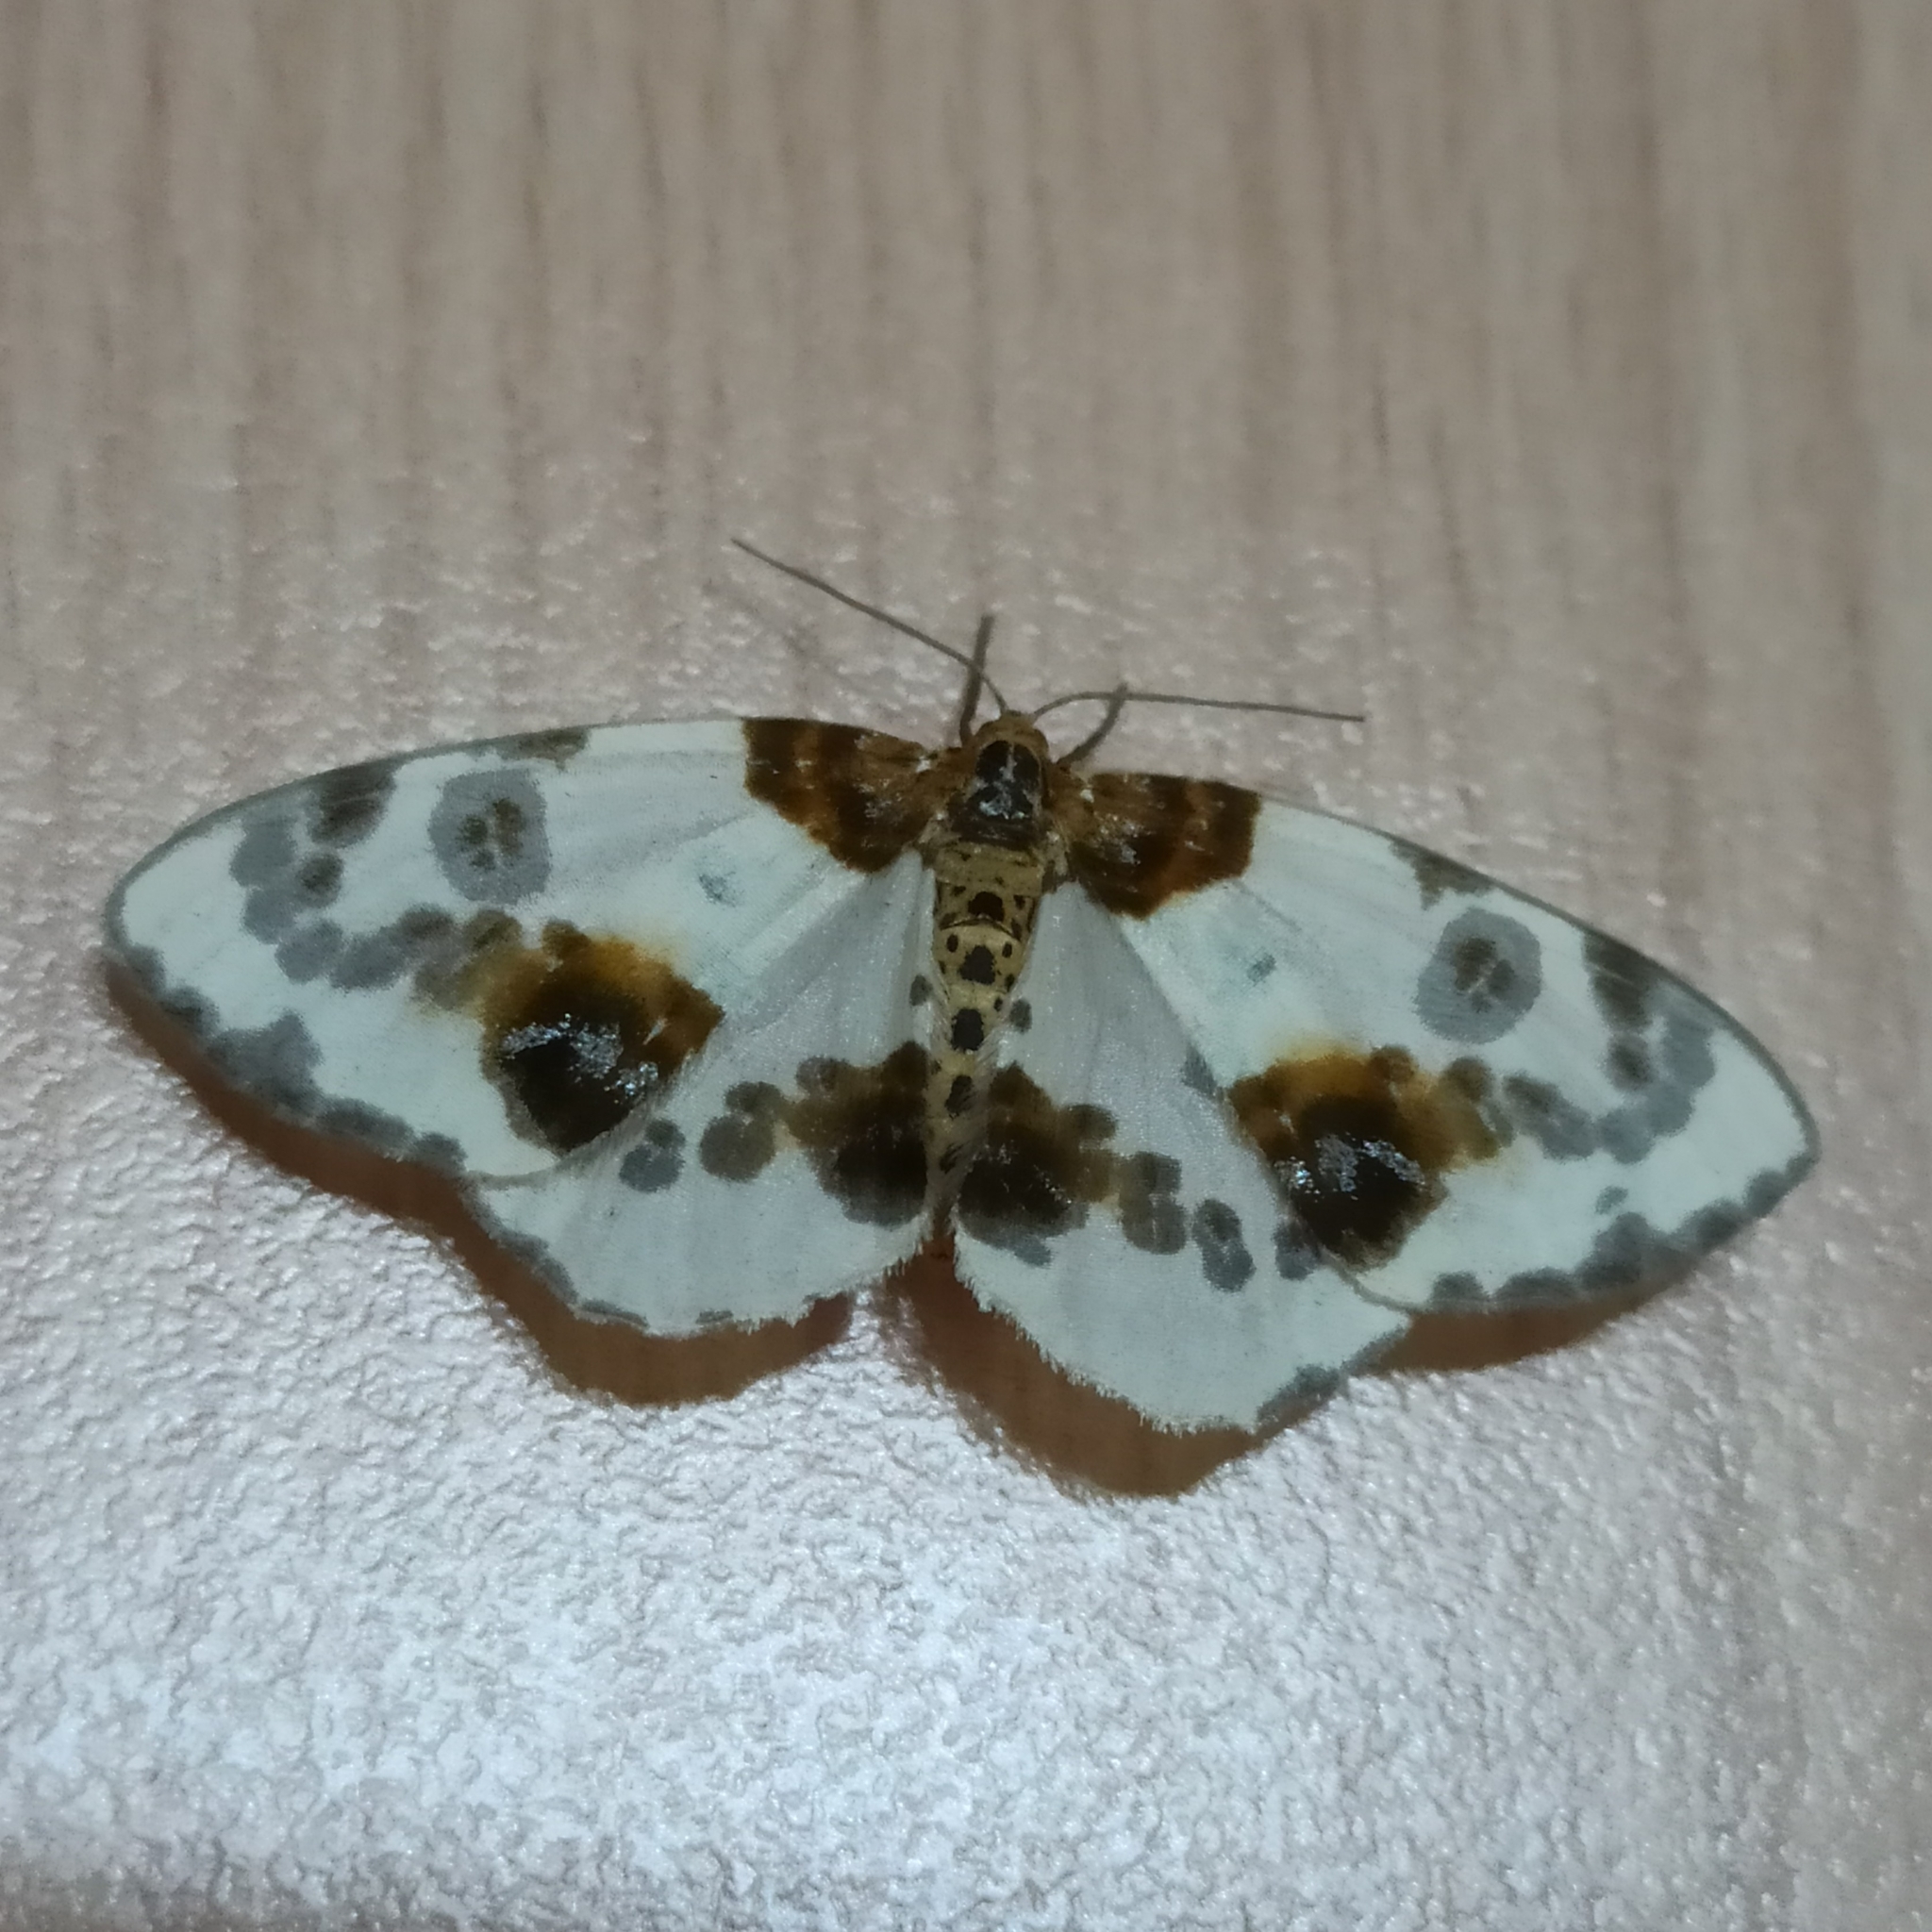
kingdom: Animalia
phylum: Arthropoda
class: Insecta
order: Lepidoptera
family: Geometridae
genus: Abraxas
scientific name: Abraxas sylvata
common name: Clouded magpie
